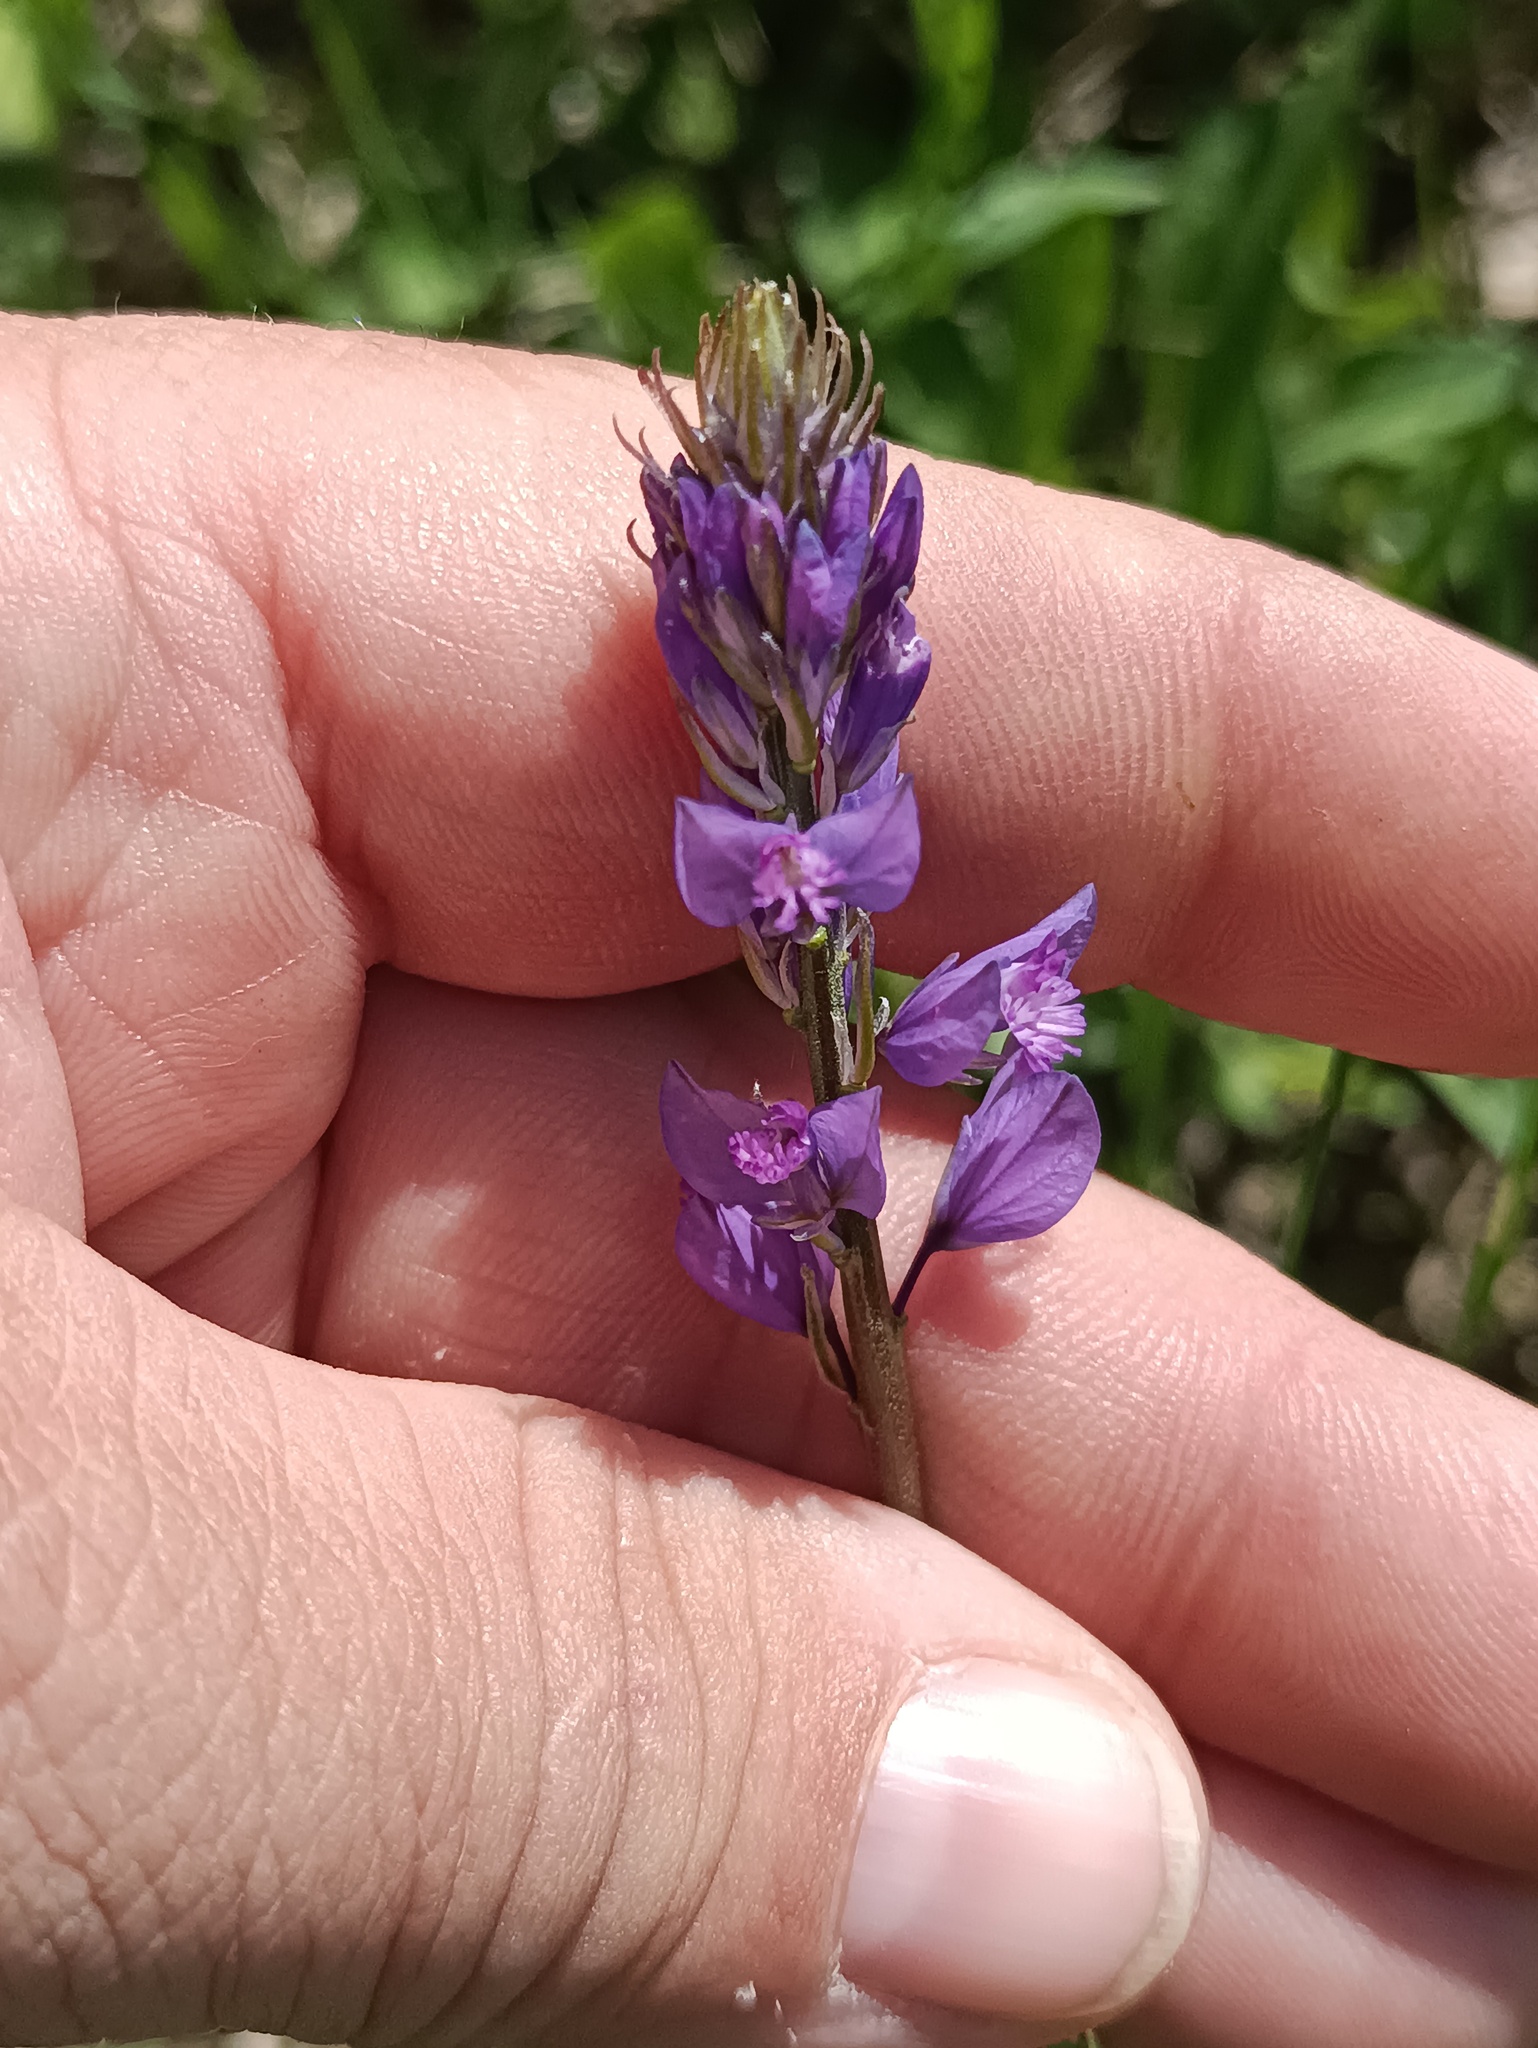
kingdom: Plantae
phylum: Tracheophyta
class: Magnoliopsida
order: Fabales
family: Polygalaceae
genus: Polygala
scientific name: Polygala nicaeensis
